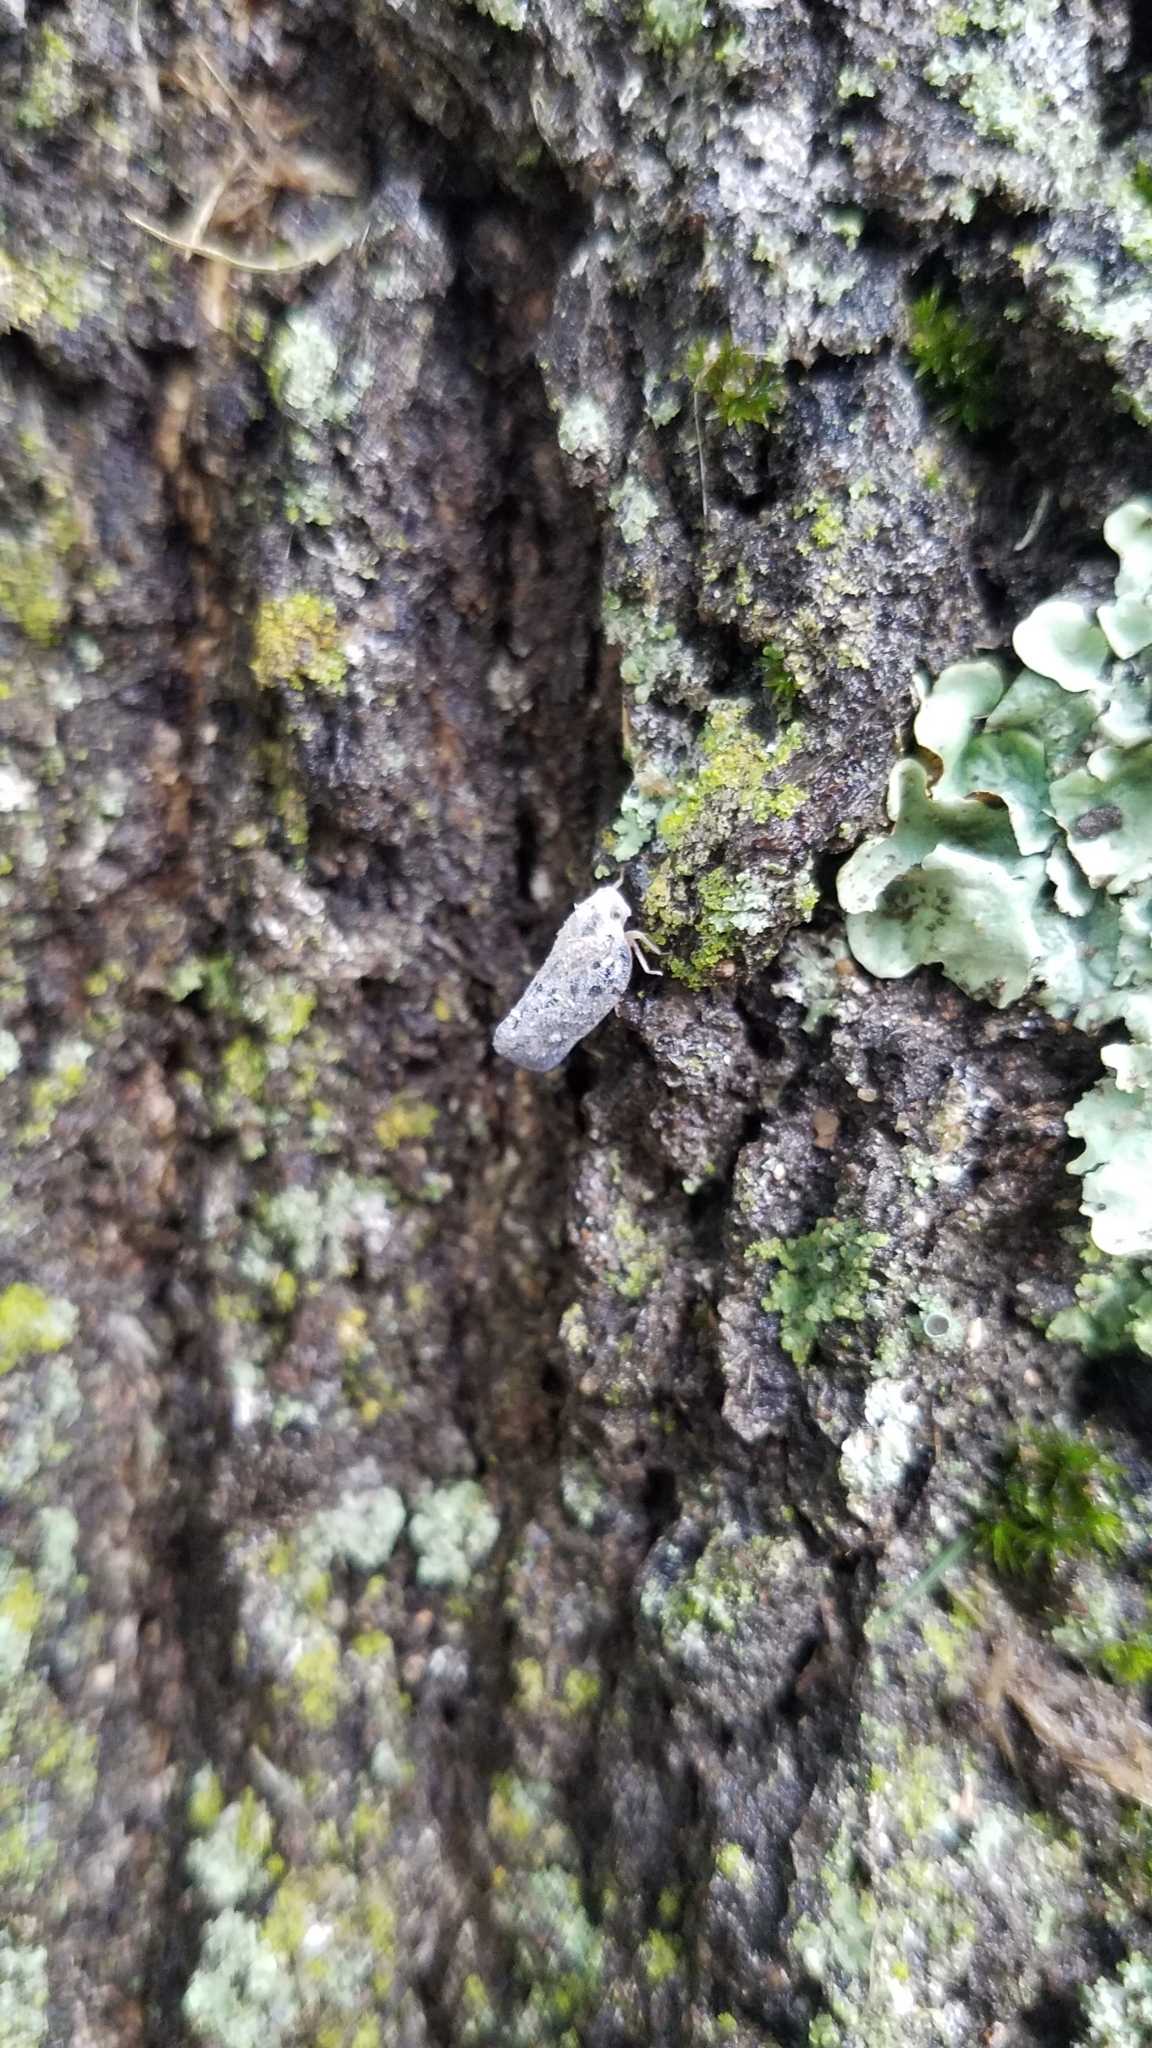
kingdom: Animalia
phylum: Arthropoda
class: Insecta
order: Hemiptera
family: Flatidae
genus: Metcalfa
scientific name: Metcalfa pruinosa
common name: Citrus flatid planthopper
